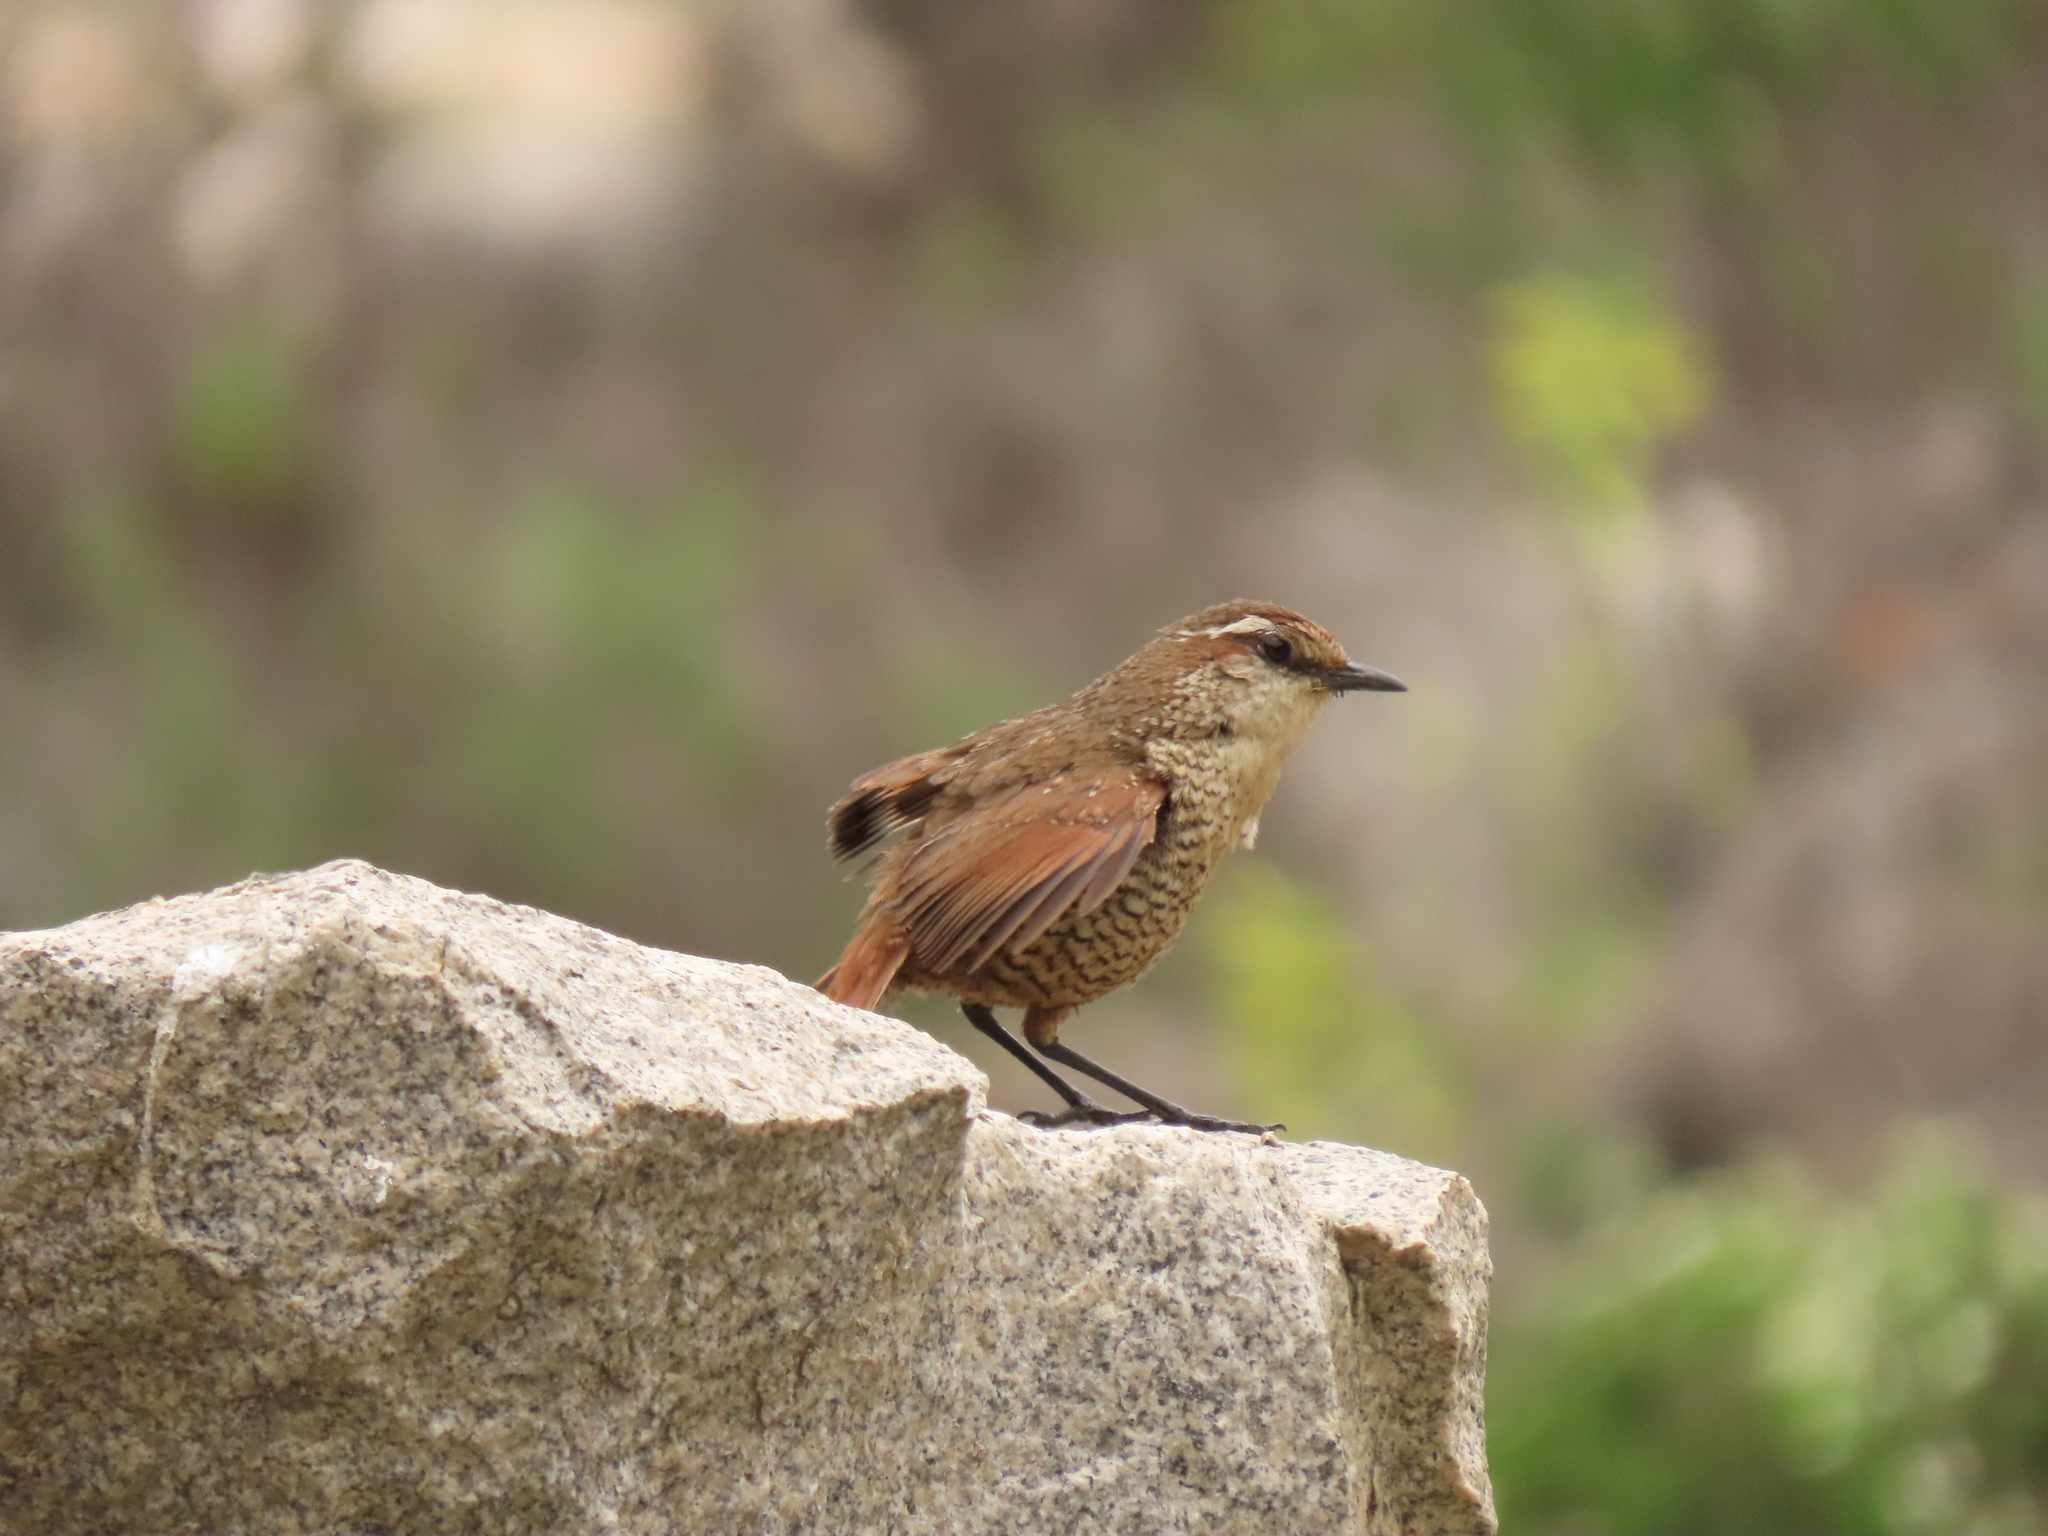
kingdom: Animalia
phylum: Chordata
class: Aves
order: Passeriformes
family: Rhinocryptidae
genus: Scelorchilus
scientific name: Scelorchilus albicollis
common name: White-throated tapaculo
